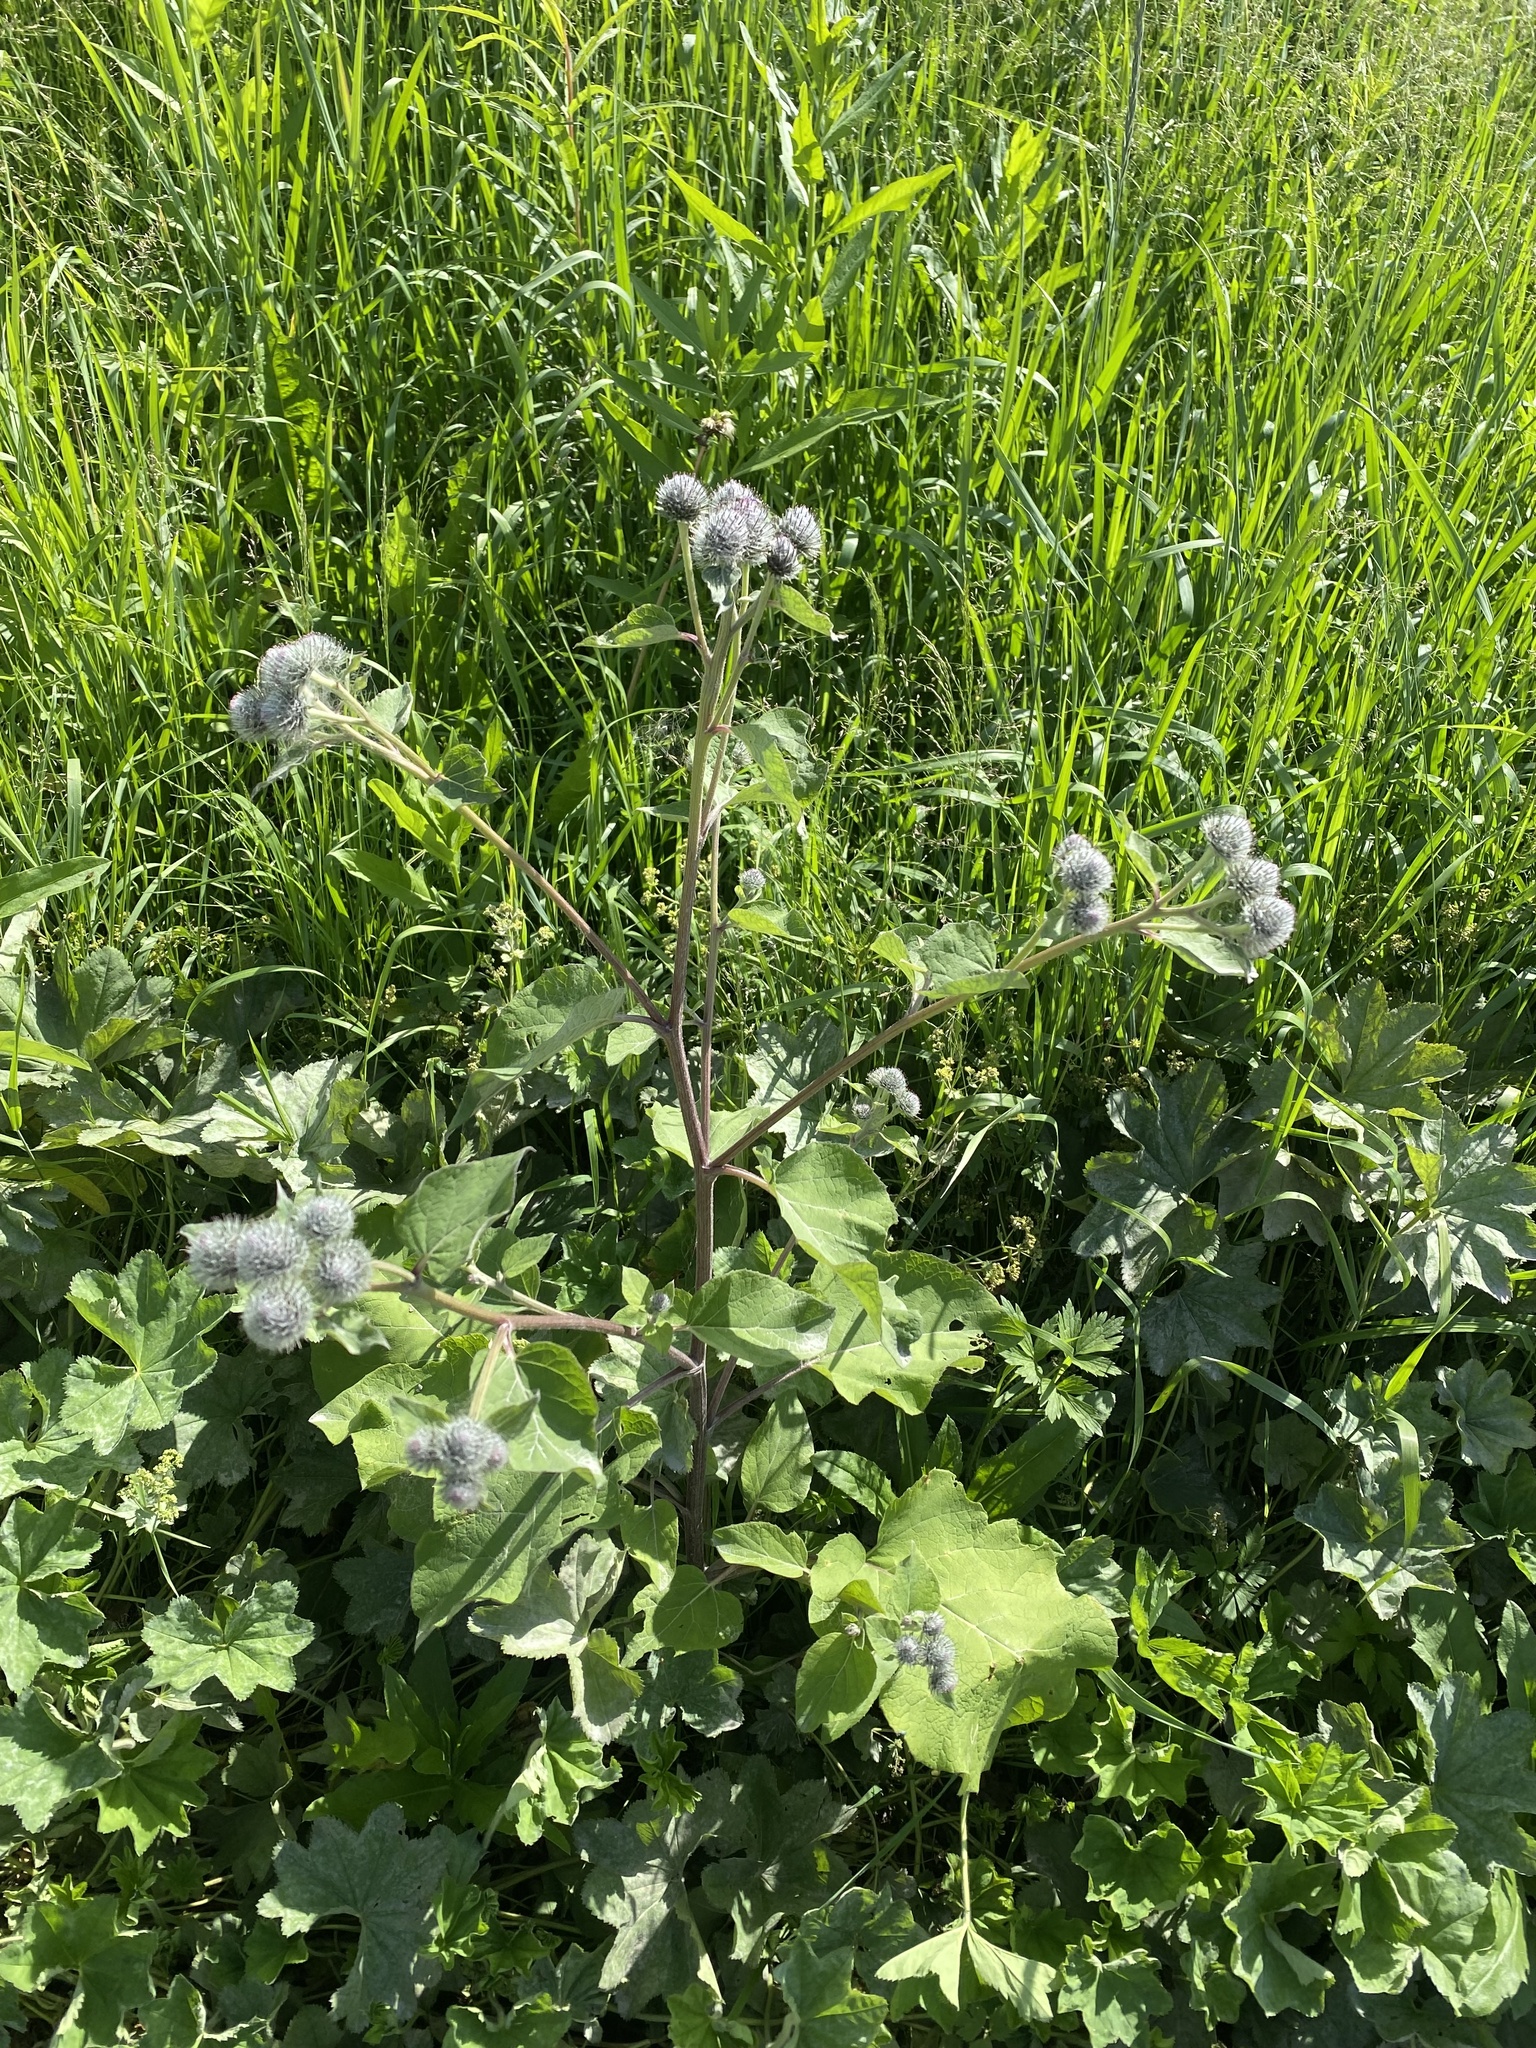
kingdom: Plantae
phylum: Tracheophyta
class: Magnoliopsida
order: Asterales
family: Asteraceae
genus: Arctium
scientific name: Arctium tomentosum
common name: Woolly burdock
